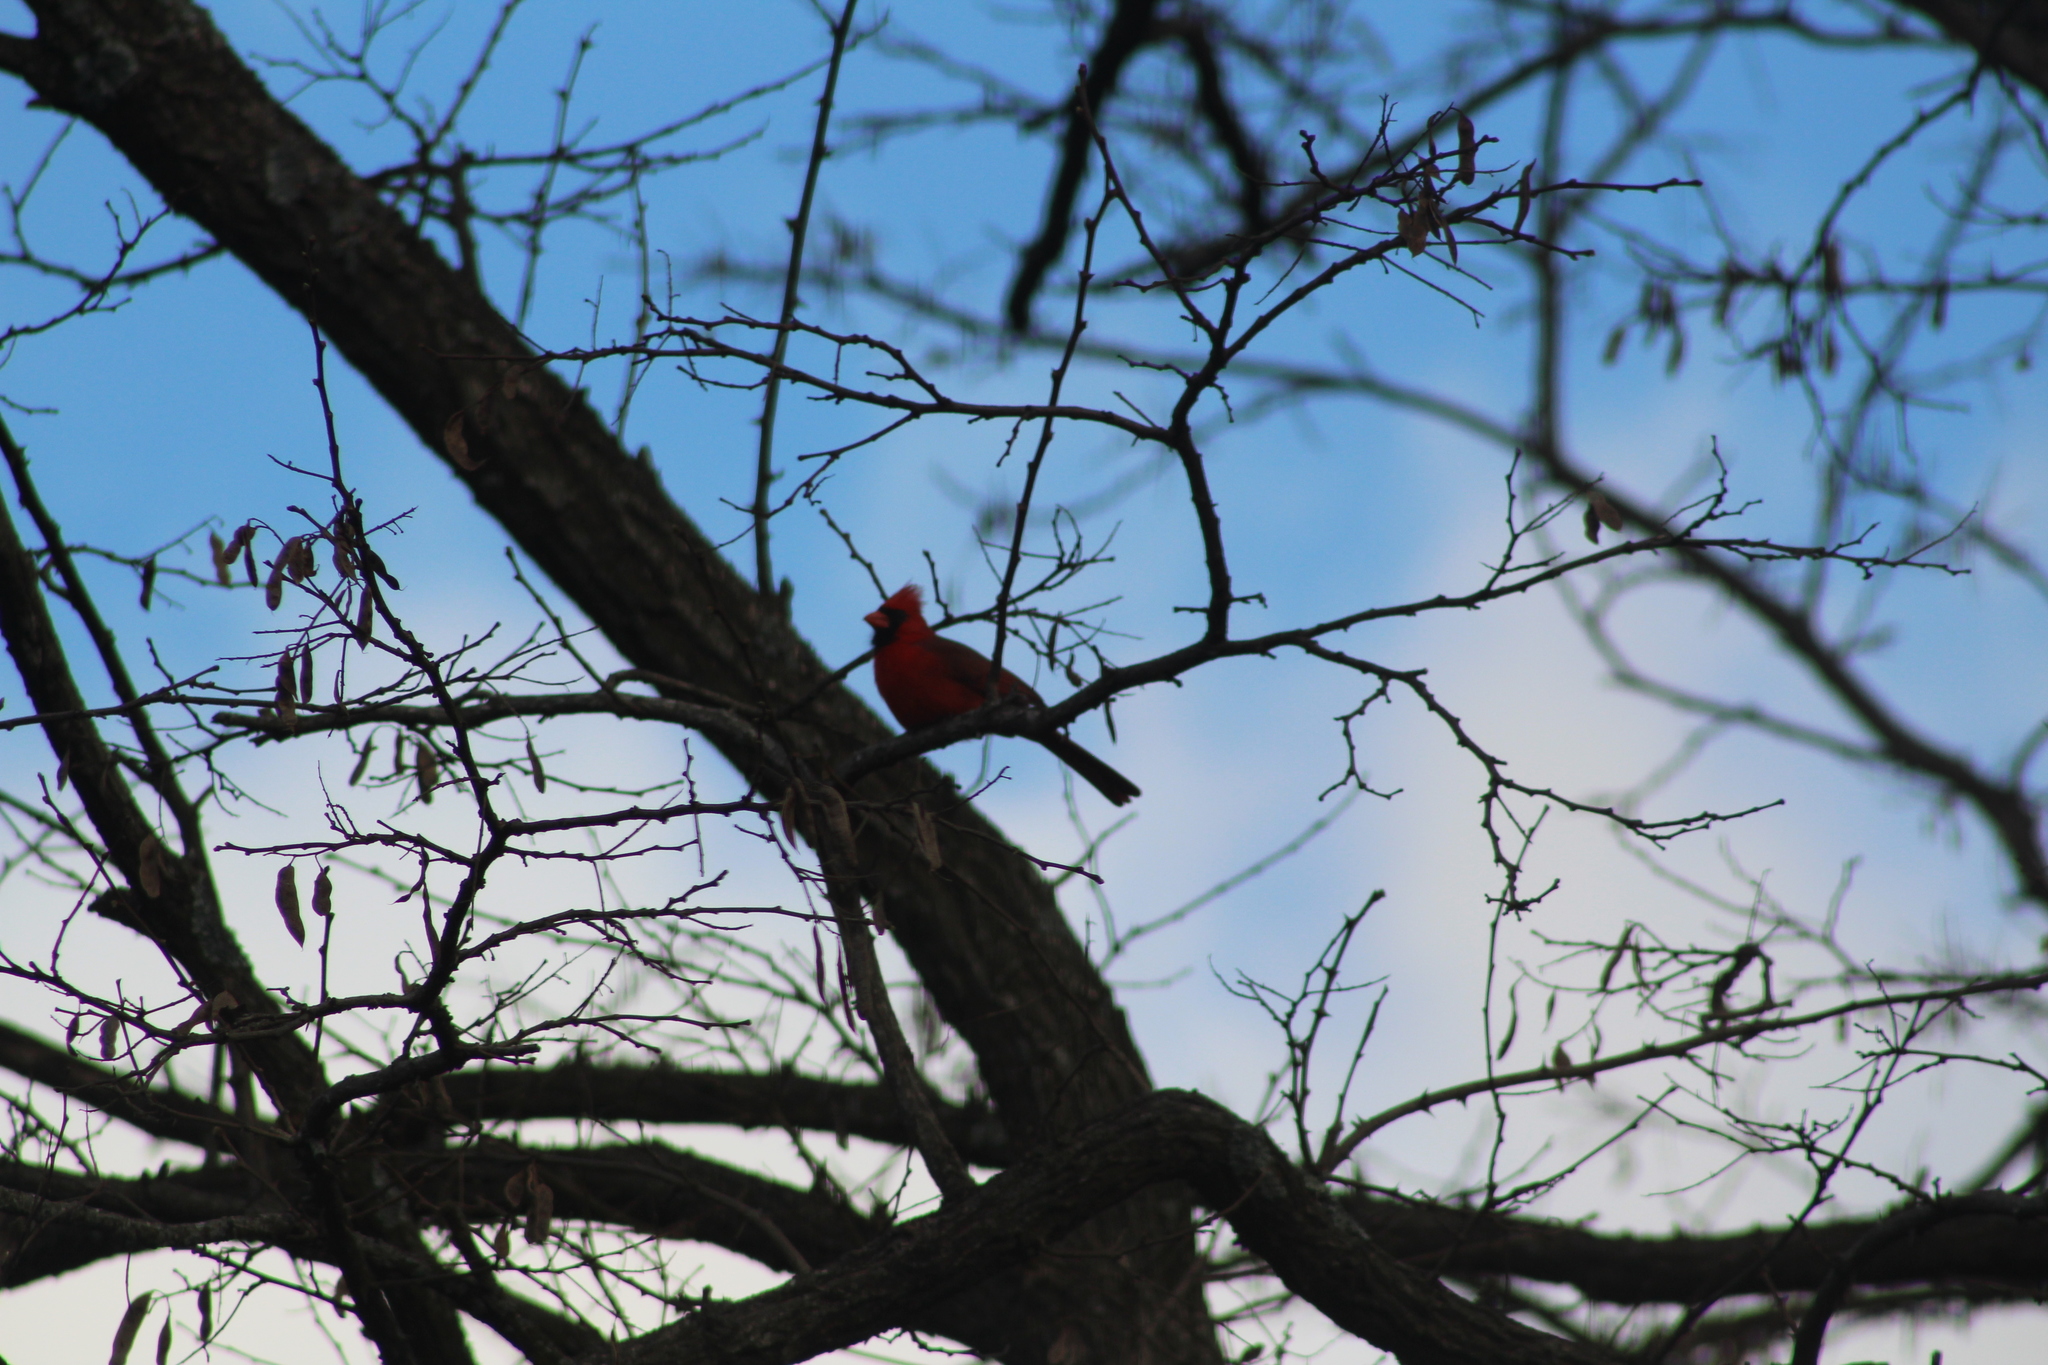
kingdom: Animalia
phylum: Chordata
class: Aves
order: Passeriformes
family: Cardinalidae
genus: Cardinalis
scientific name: Cardinalis cardinalis
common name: Northern cardinal
